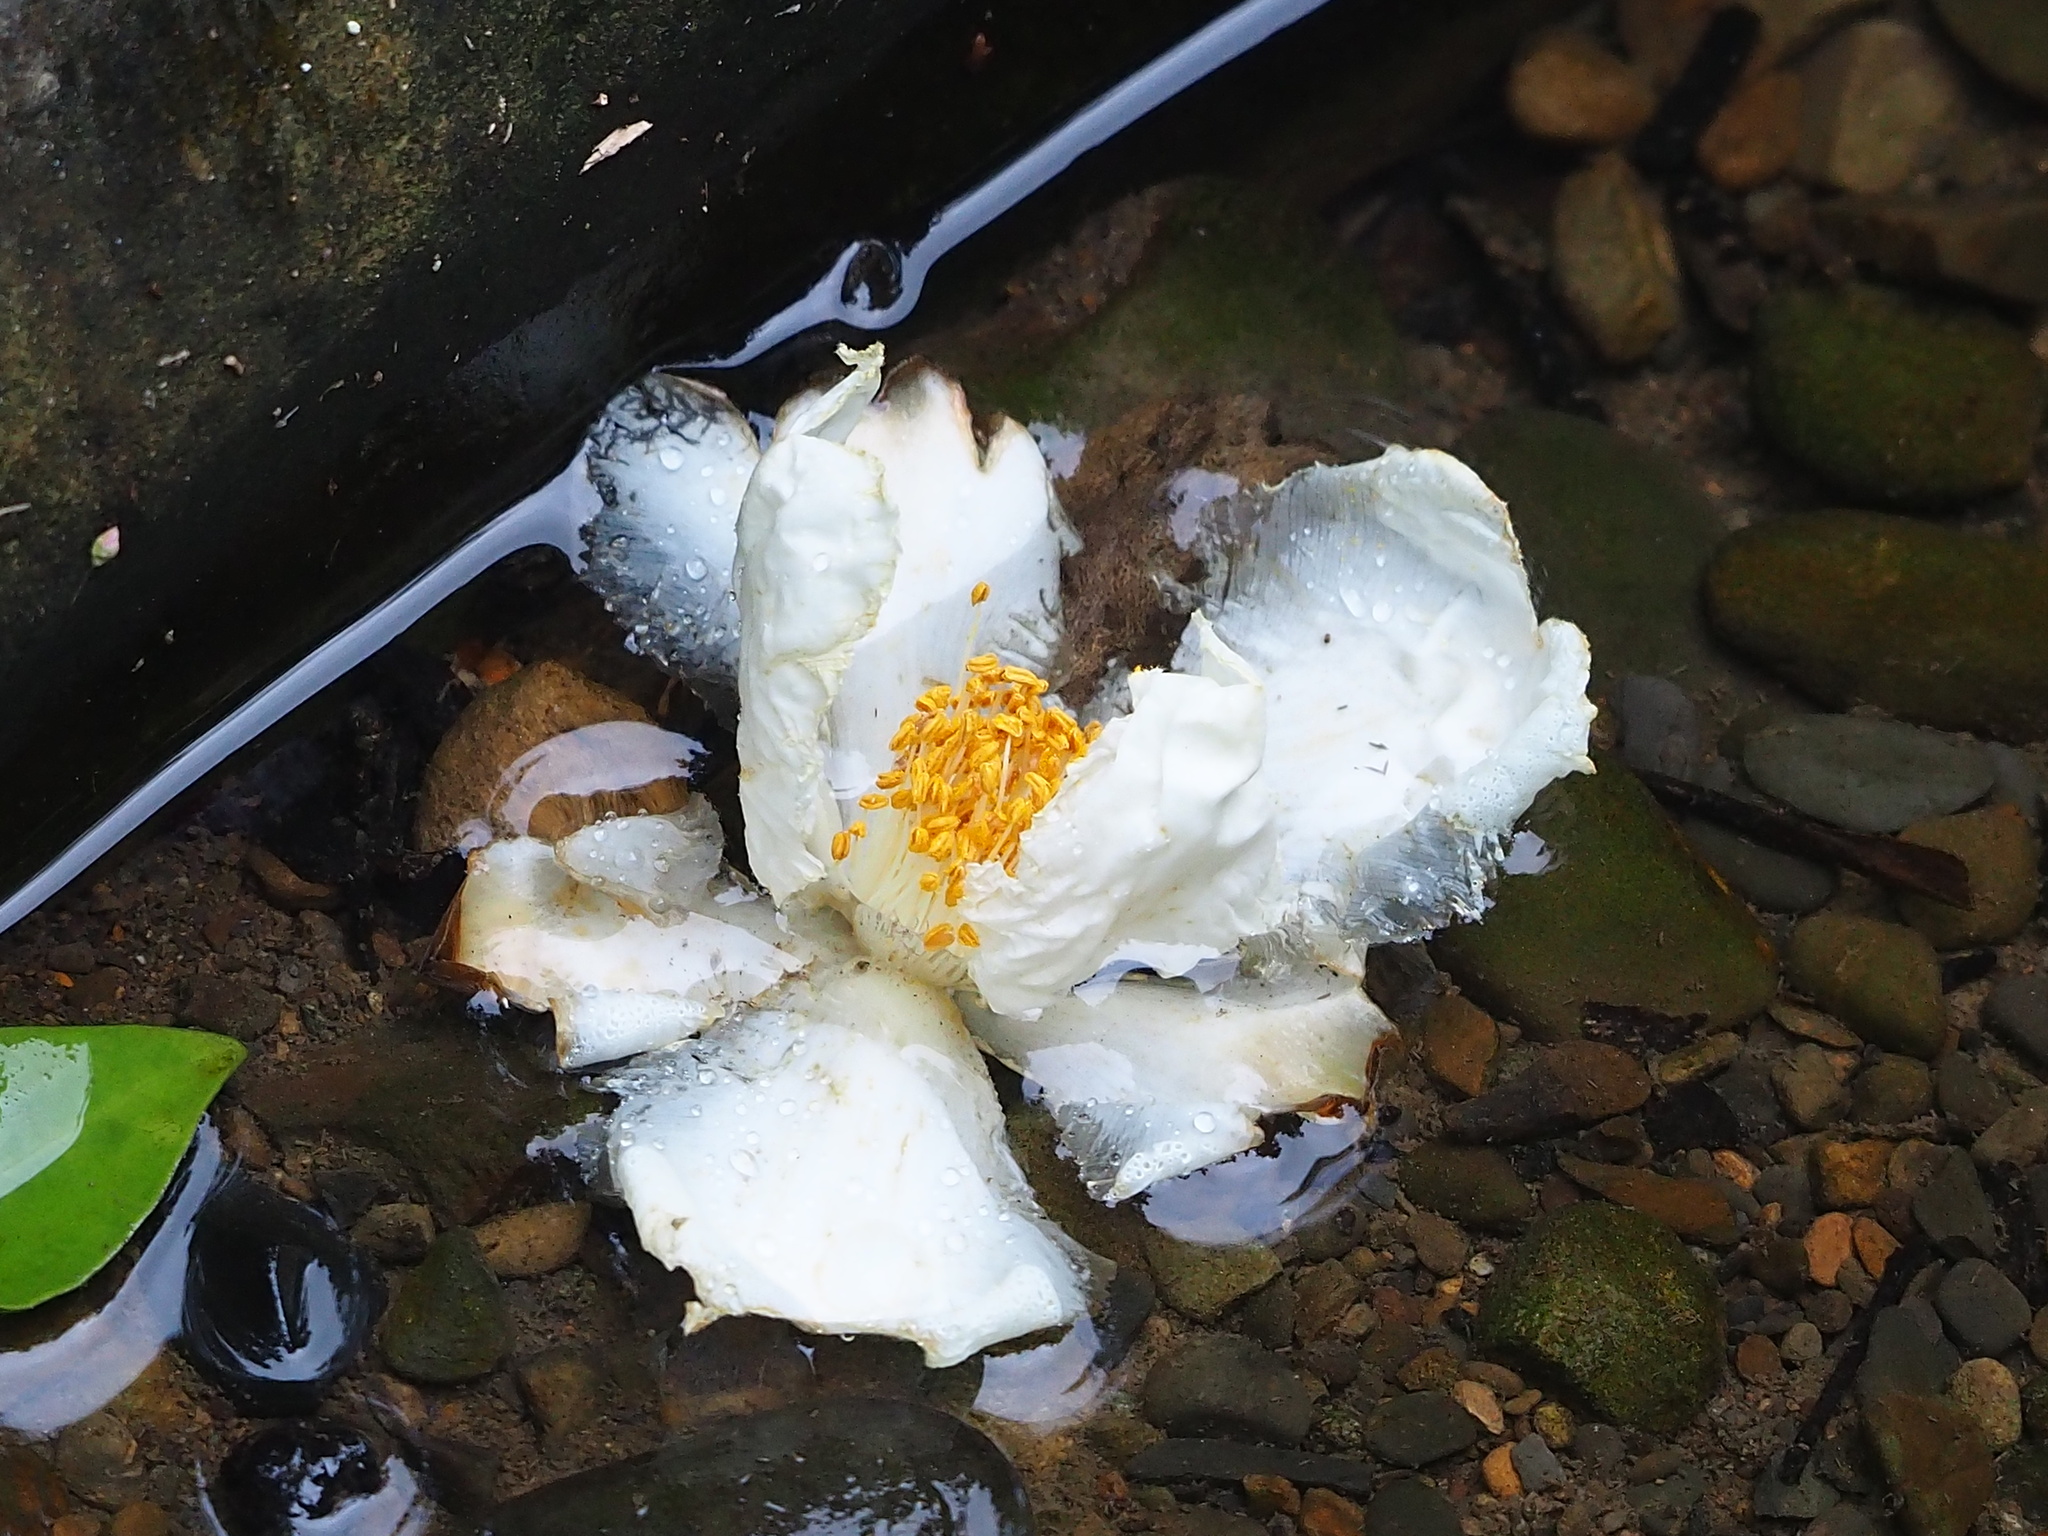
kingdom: Plantae
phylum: Tracheophyta
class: Magnoliopsida
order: Ericales
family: Theaceae
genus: Polyspora
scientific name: Polyspora axillaris
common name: Fried egg tree
